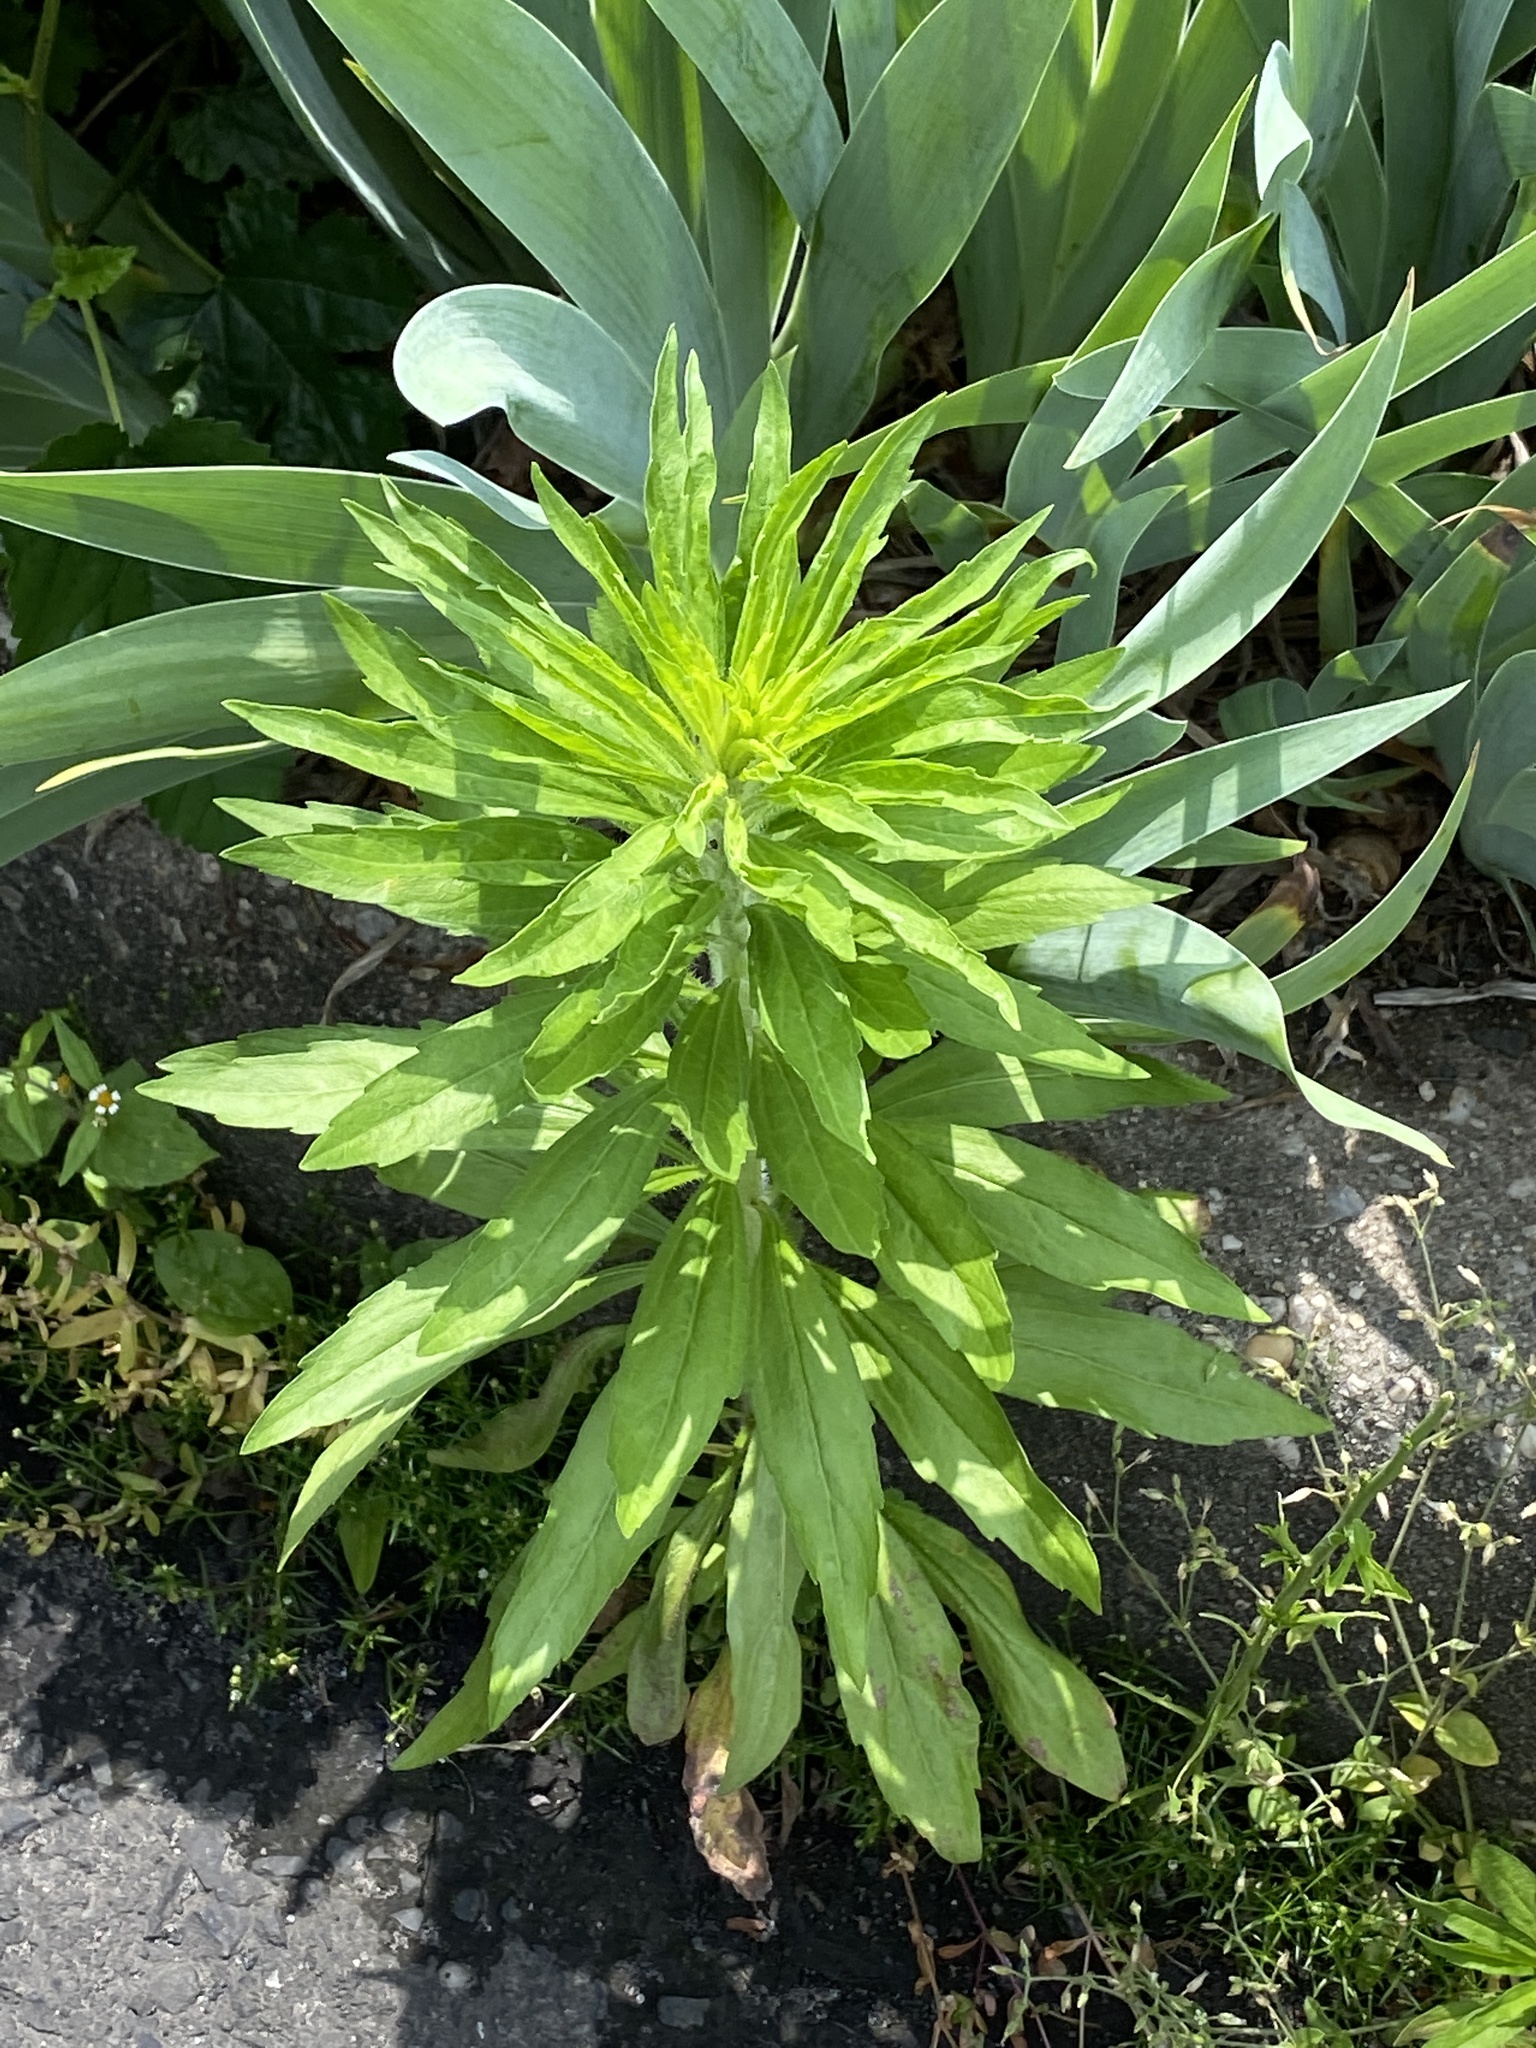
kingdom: Plantae
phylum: Tracheophyta
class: Magnoliopsida
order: Asterales
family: Asteraceae
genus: Erigeron
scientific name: Erigeron canadensis
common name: Canadian fleabane
